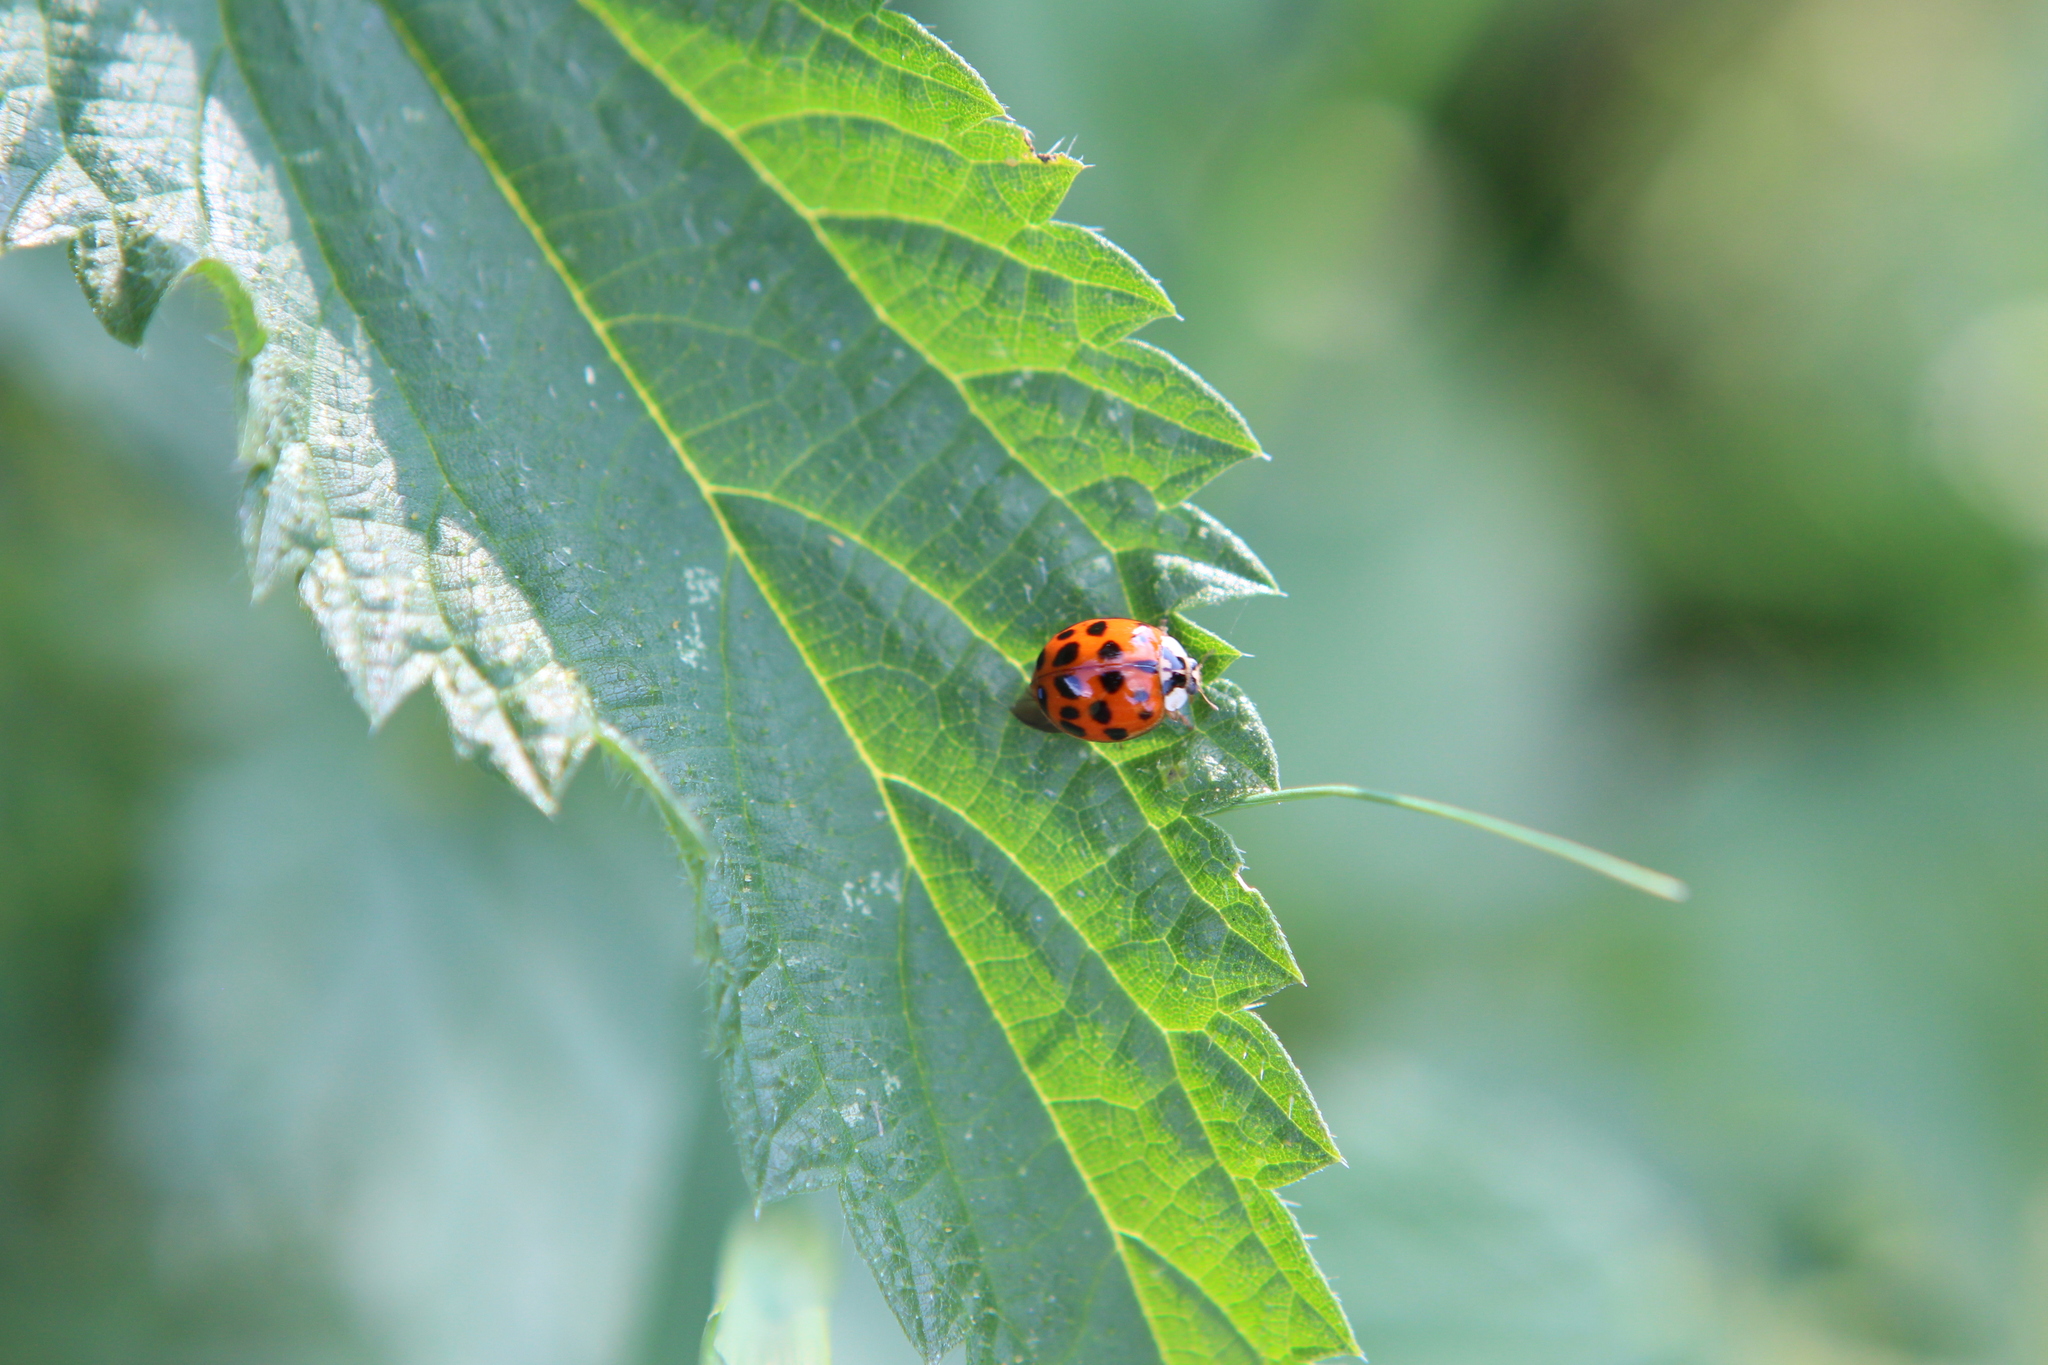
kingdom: Animalia
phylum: Arthropoda
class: Insecta
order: Coleoptera
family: Coccinellidae
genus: Harmonia
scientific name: Harmonia axyridis
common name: Harlequin ladybird
